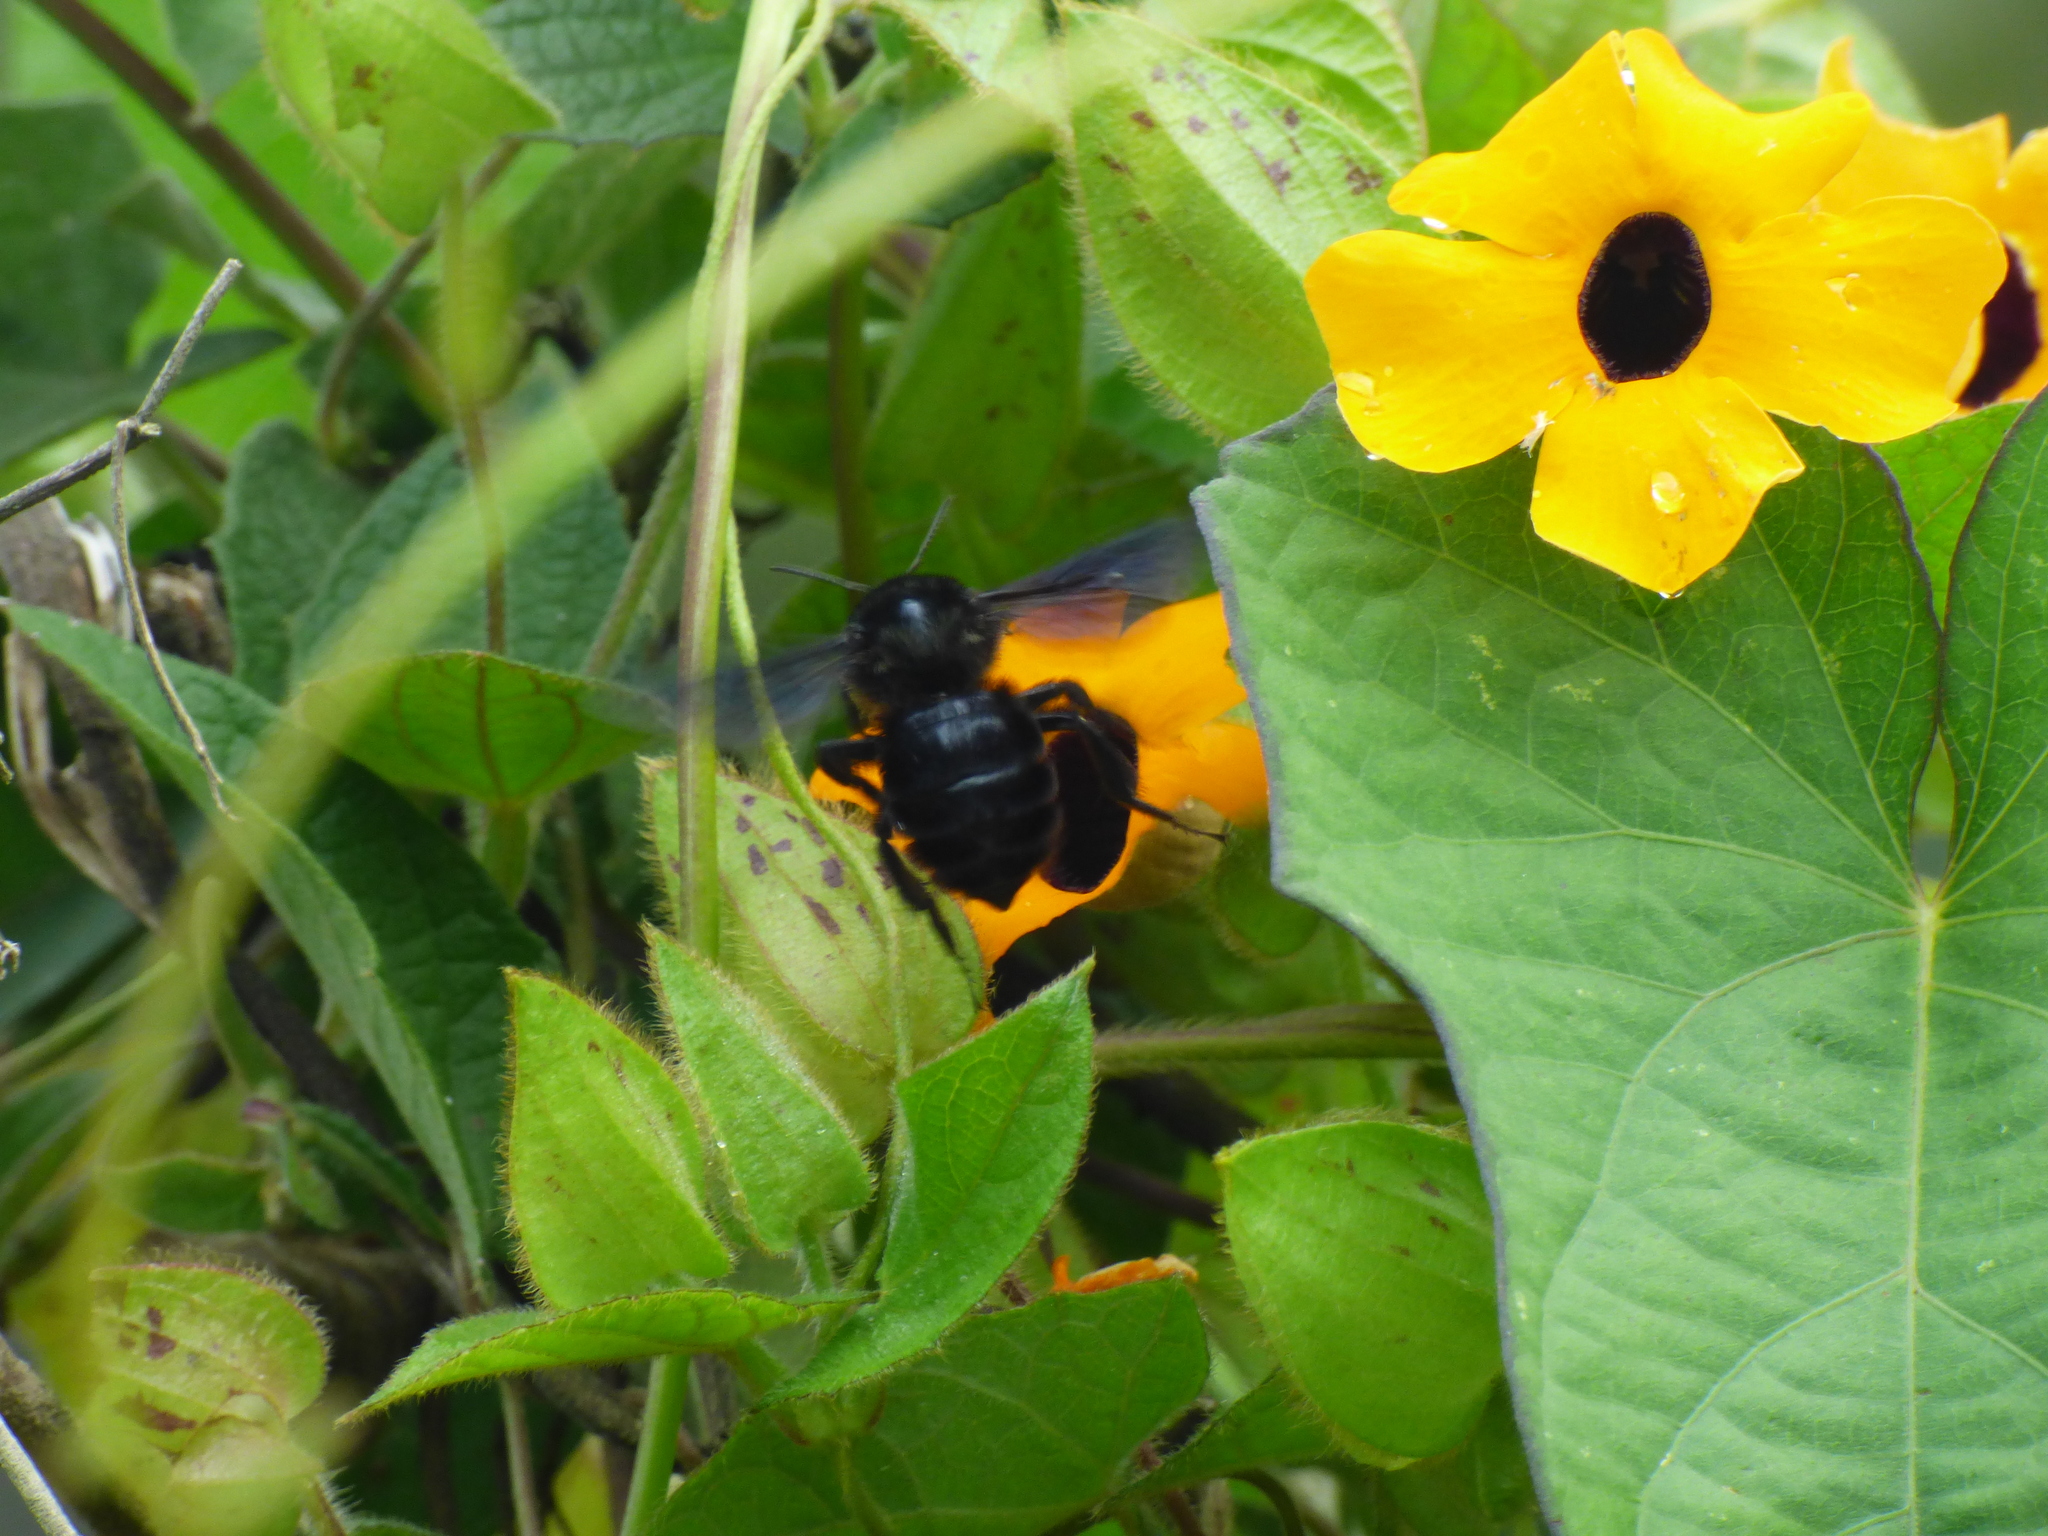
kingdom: Animalia
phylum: Arthropoda
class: Insecta
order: Hymenoptera
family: Apidae
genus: Bombus
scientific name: Bombus pauloensis
